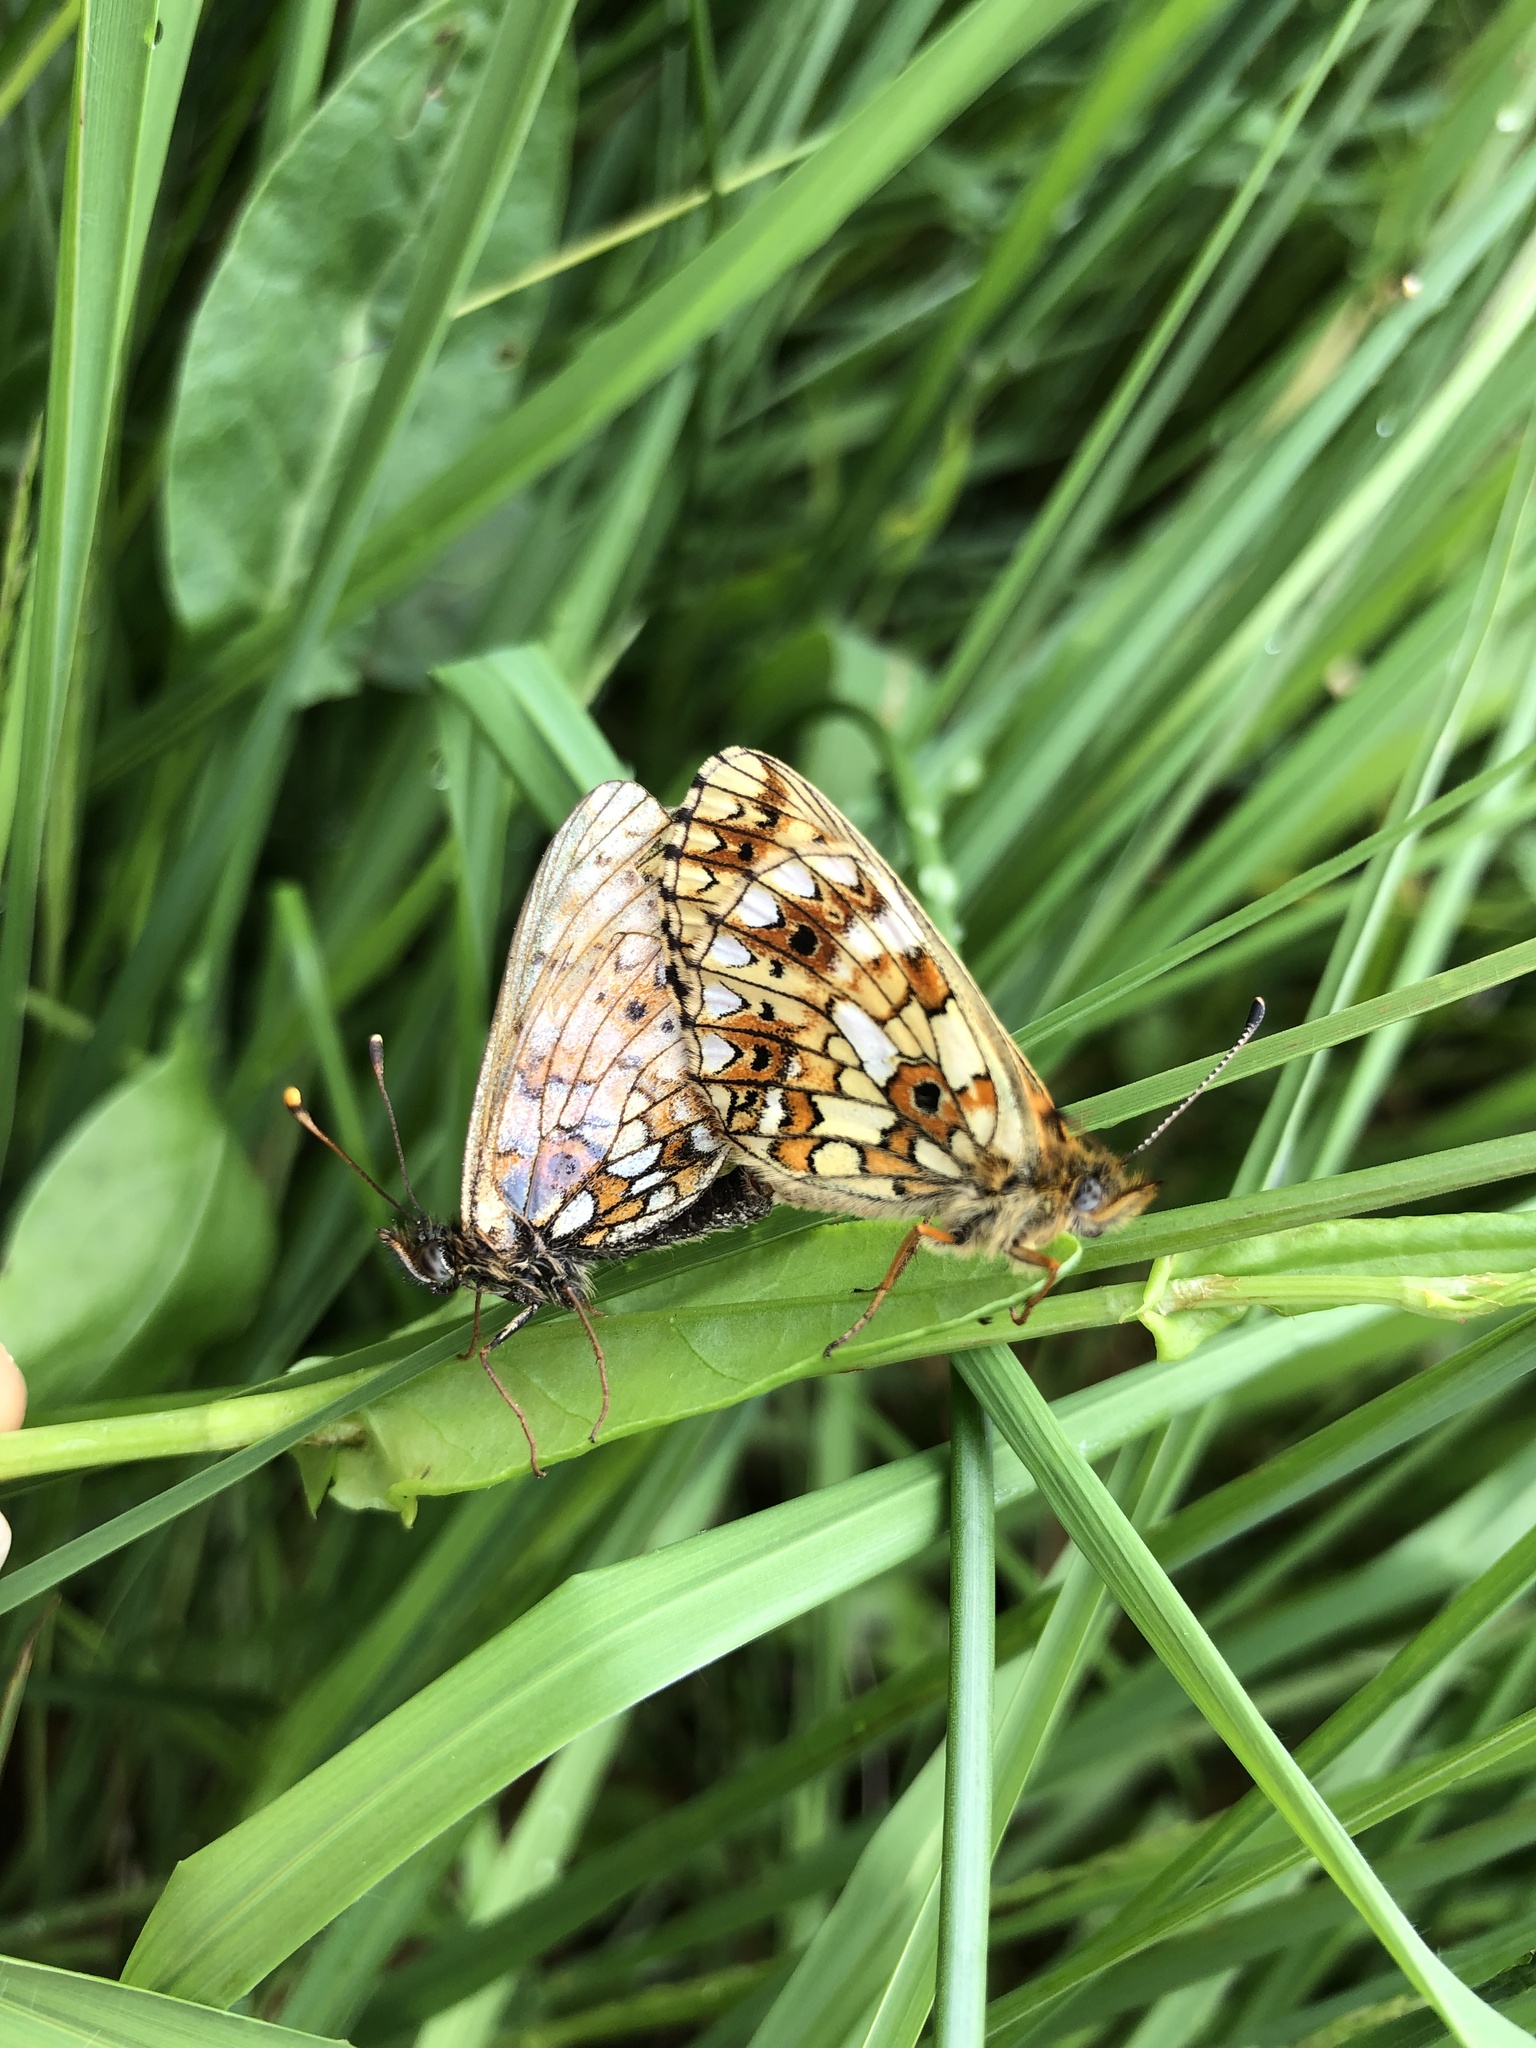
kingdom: Animalia
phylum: Arthropoda
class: Insecta
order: Lepidoptera
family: Nymphalidae
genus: Boloria
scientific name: Boloria selene
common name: Small pearl-bordered fritillary
